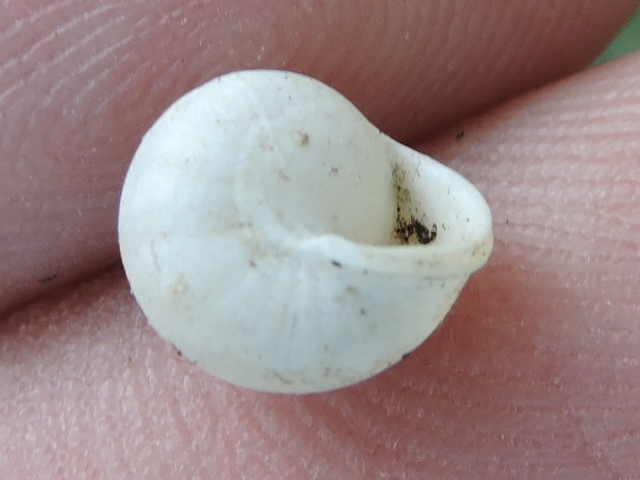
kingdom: Animalia
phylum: Mollusca
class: Gastropoda
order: Cycloneritida
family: Helicinidae
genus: Helicina
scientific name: Helicina orbiculata
